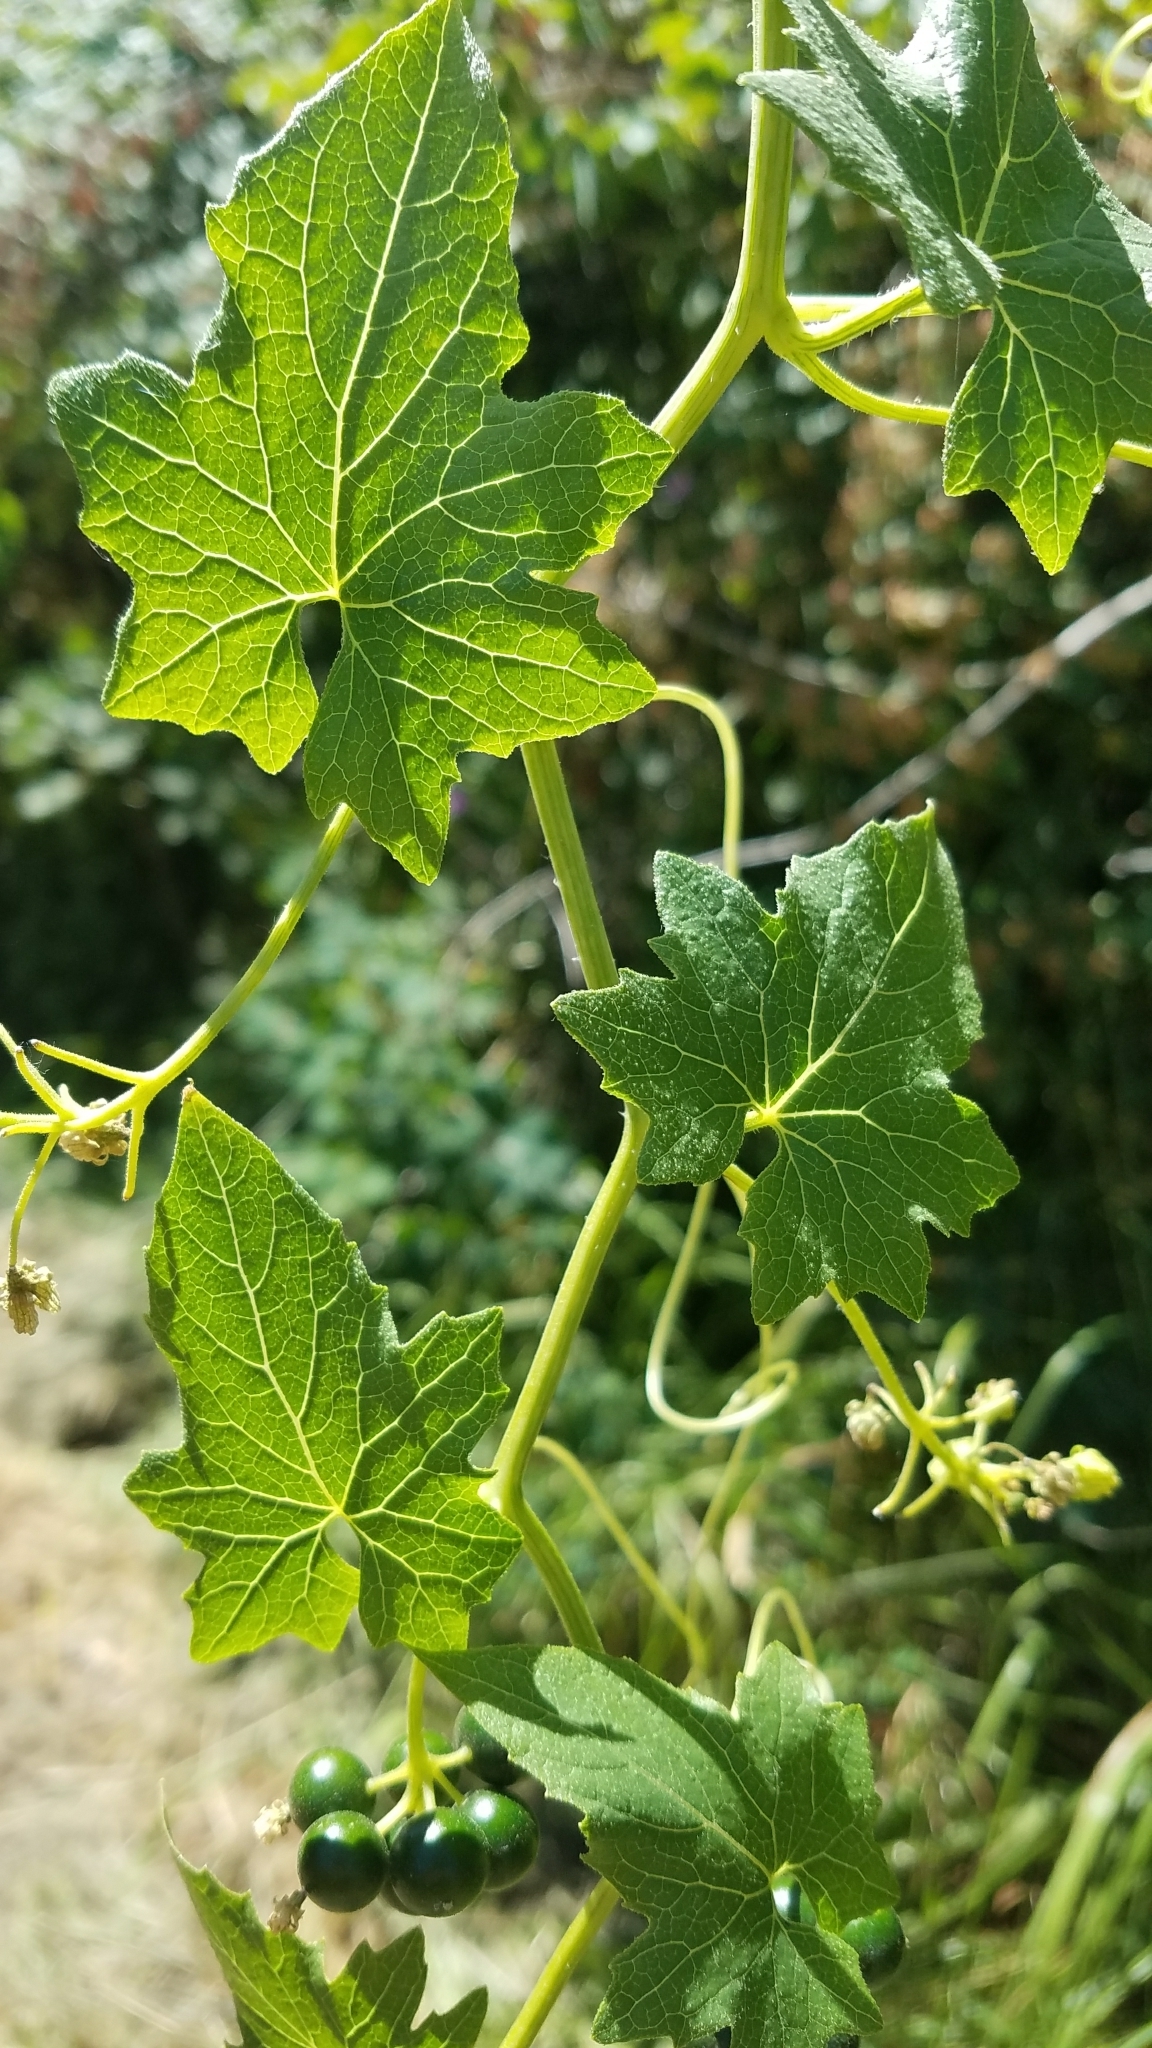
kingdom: Plantae
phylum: Tracheophyta
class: Magnoliopsida
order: Cucurbitales
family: Cucurbitaceae
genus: Bryonia
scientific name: Bryonia alba
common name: White bryony
